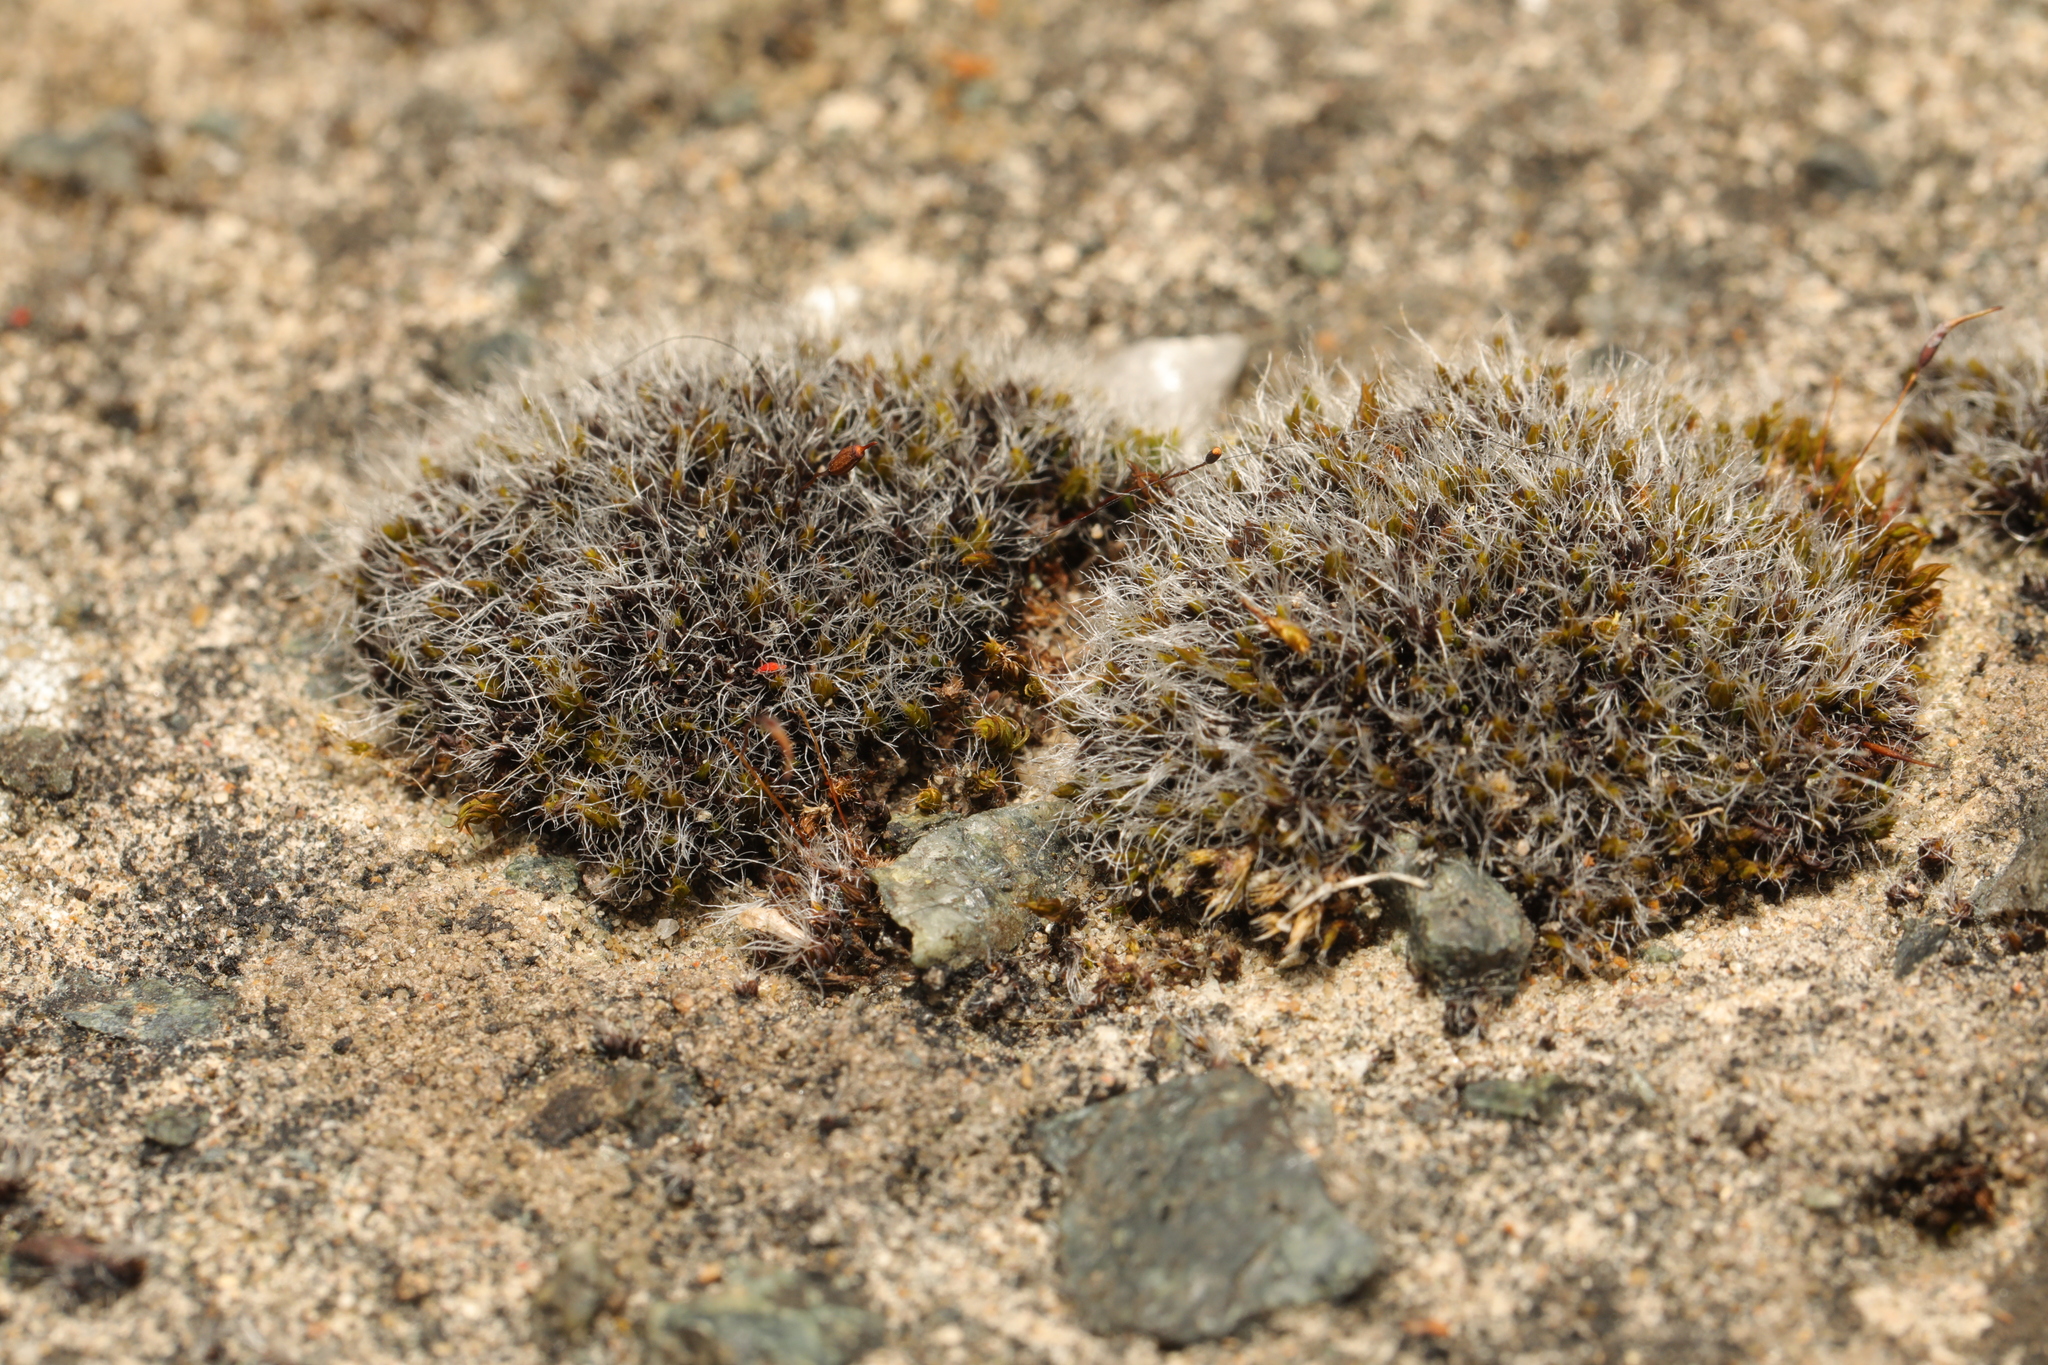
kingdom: Plantae
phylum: Bryophyta
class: Bryopsida
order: Grimmiales
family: Grimmiaceae
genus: Grimmia
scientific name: Grimmia pulvinata
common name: Grey-cushioned grimmia
